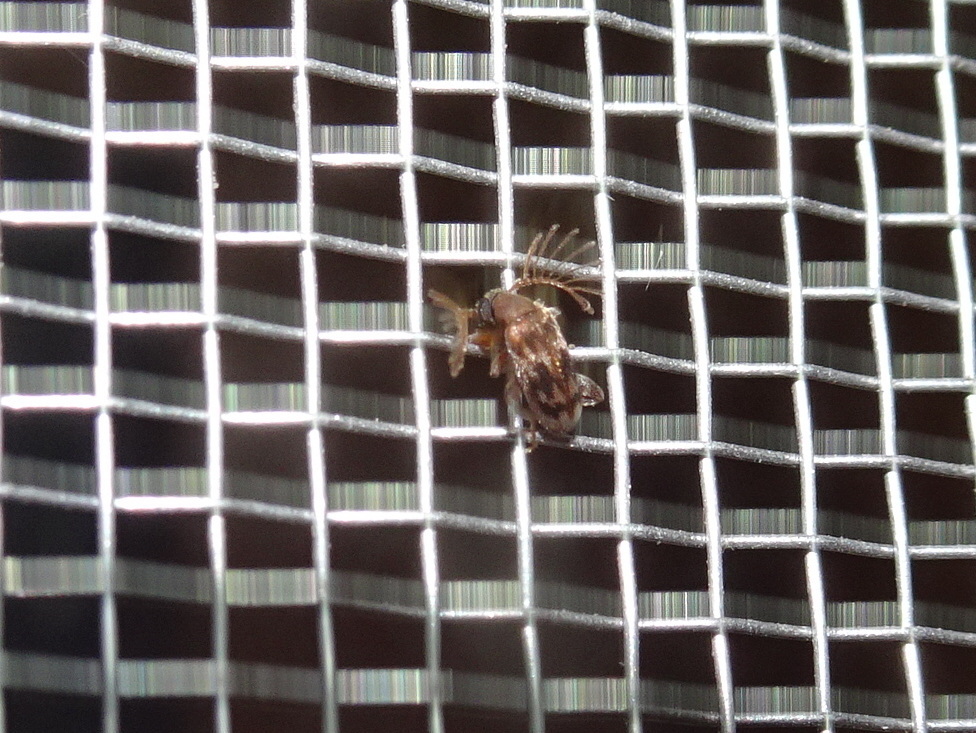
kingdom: Animalia
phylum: Arthropoda
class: Insecta
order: Coleoptera
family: Aderidae
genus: Emelinus
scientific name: Emelinus melsheimeri
